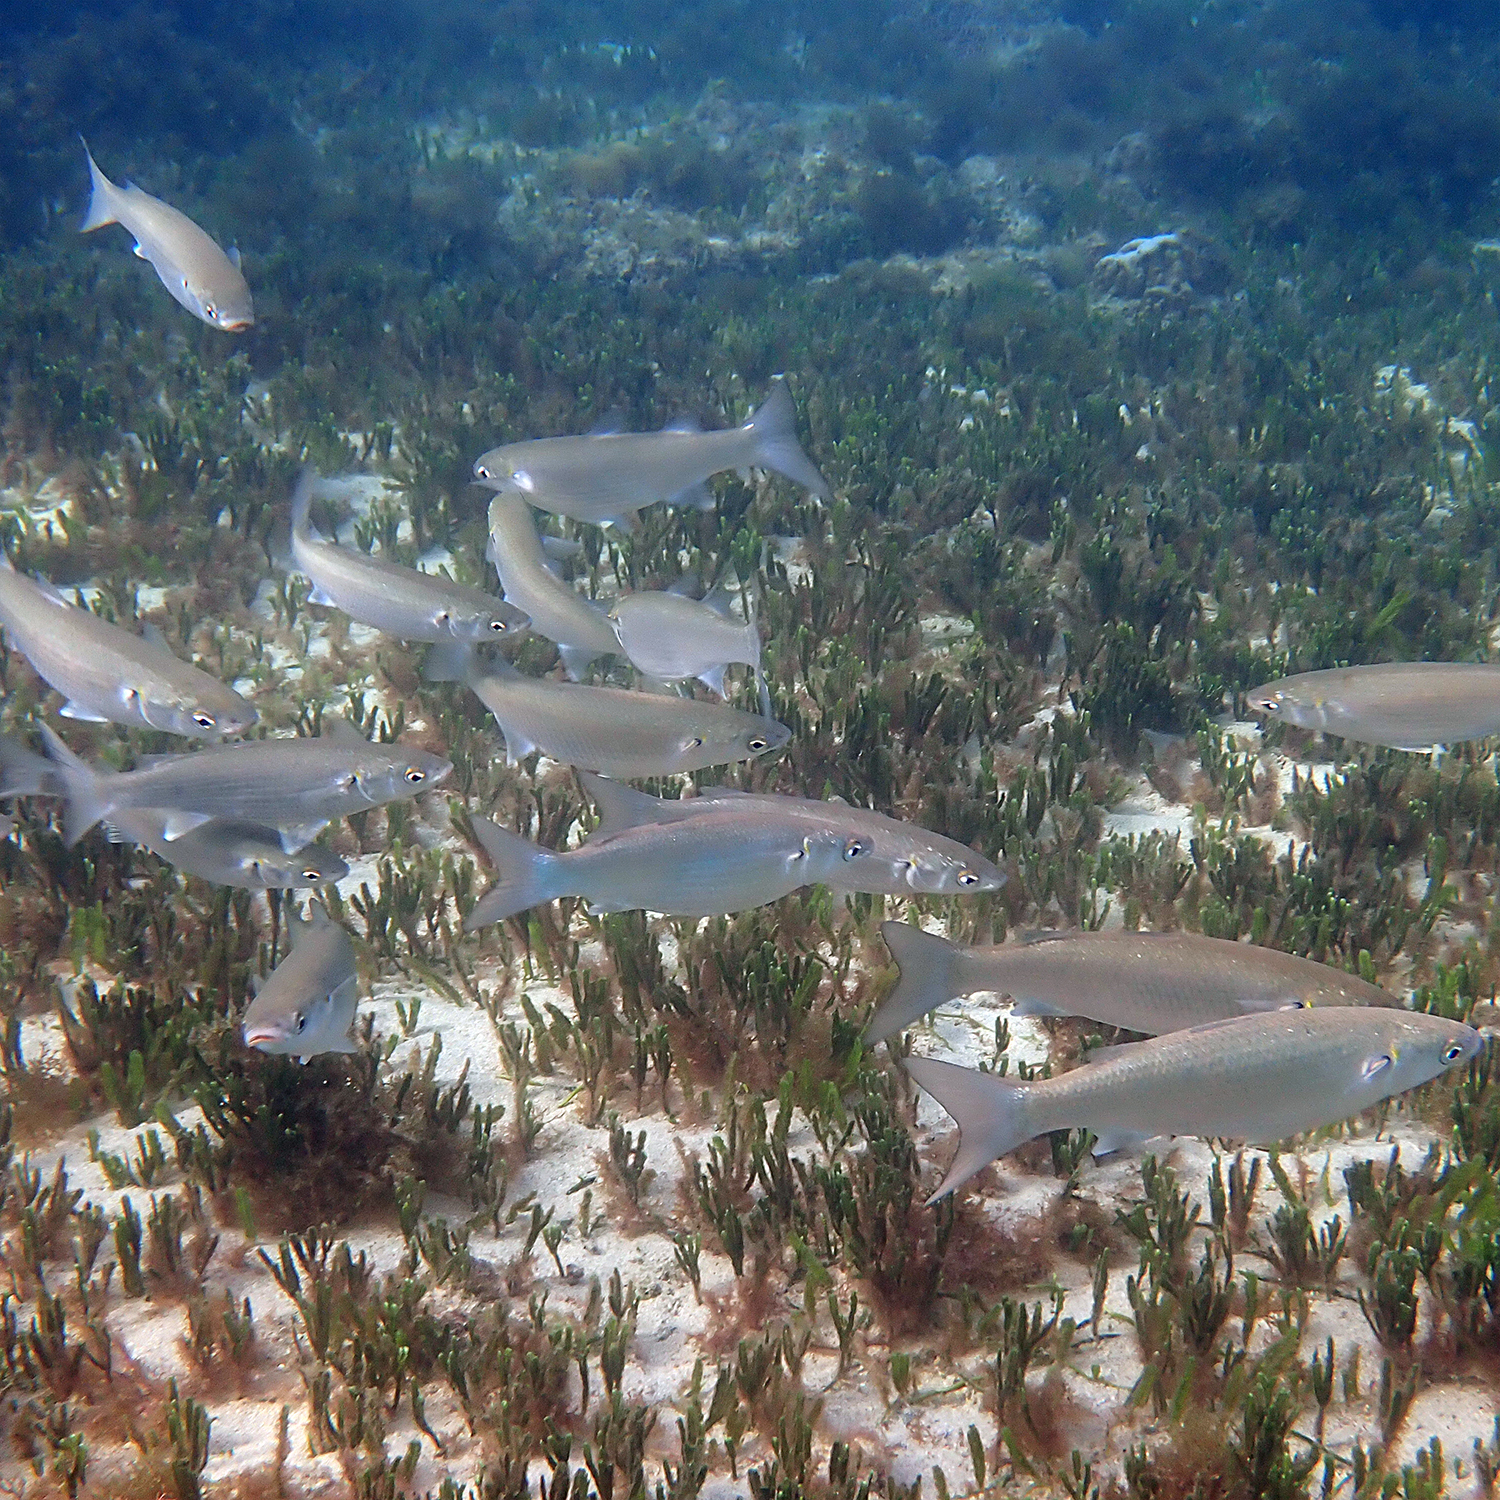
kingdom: Animalia
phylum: Chordata
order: Mugiliformes
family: Mugilidae
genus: Myxus
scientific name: Myxus elongatus
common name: Sand grey mullet
